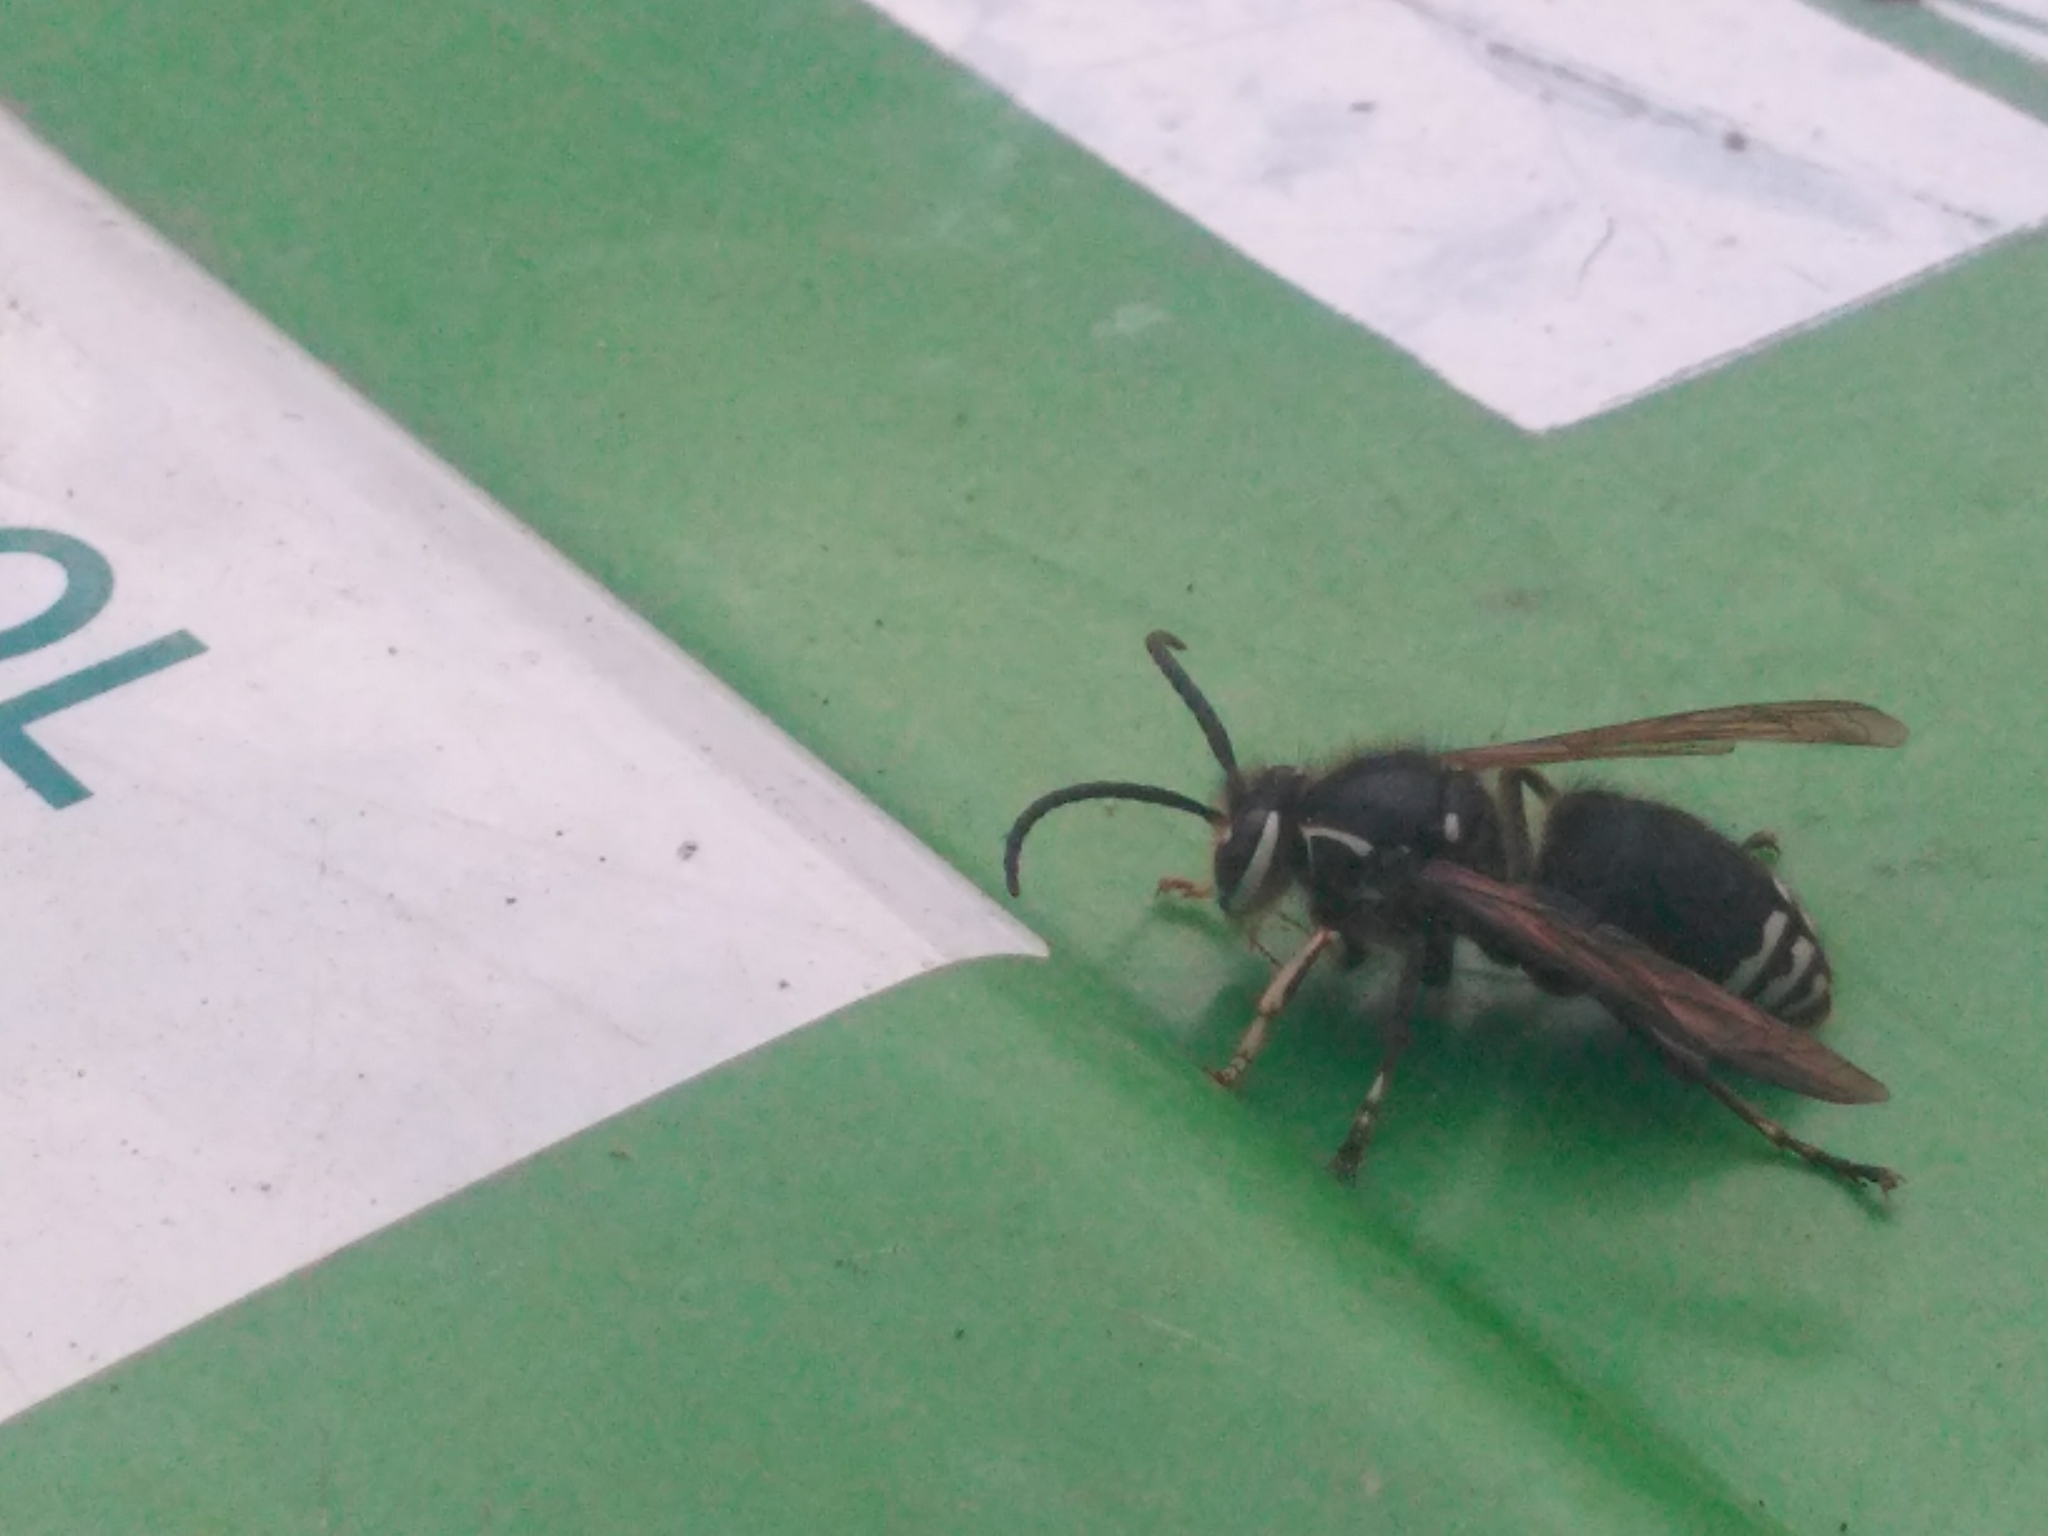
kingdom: Animalia
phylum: Arthropoda
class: Insecta
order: Hymenoptera
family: Vespidae
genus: Dolichovespula
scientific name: Dolichovespula maculata
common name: Bald-faced hornet
